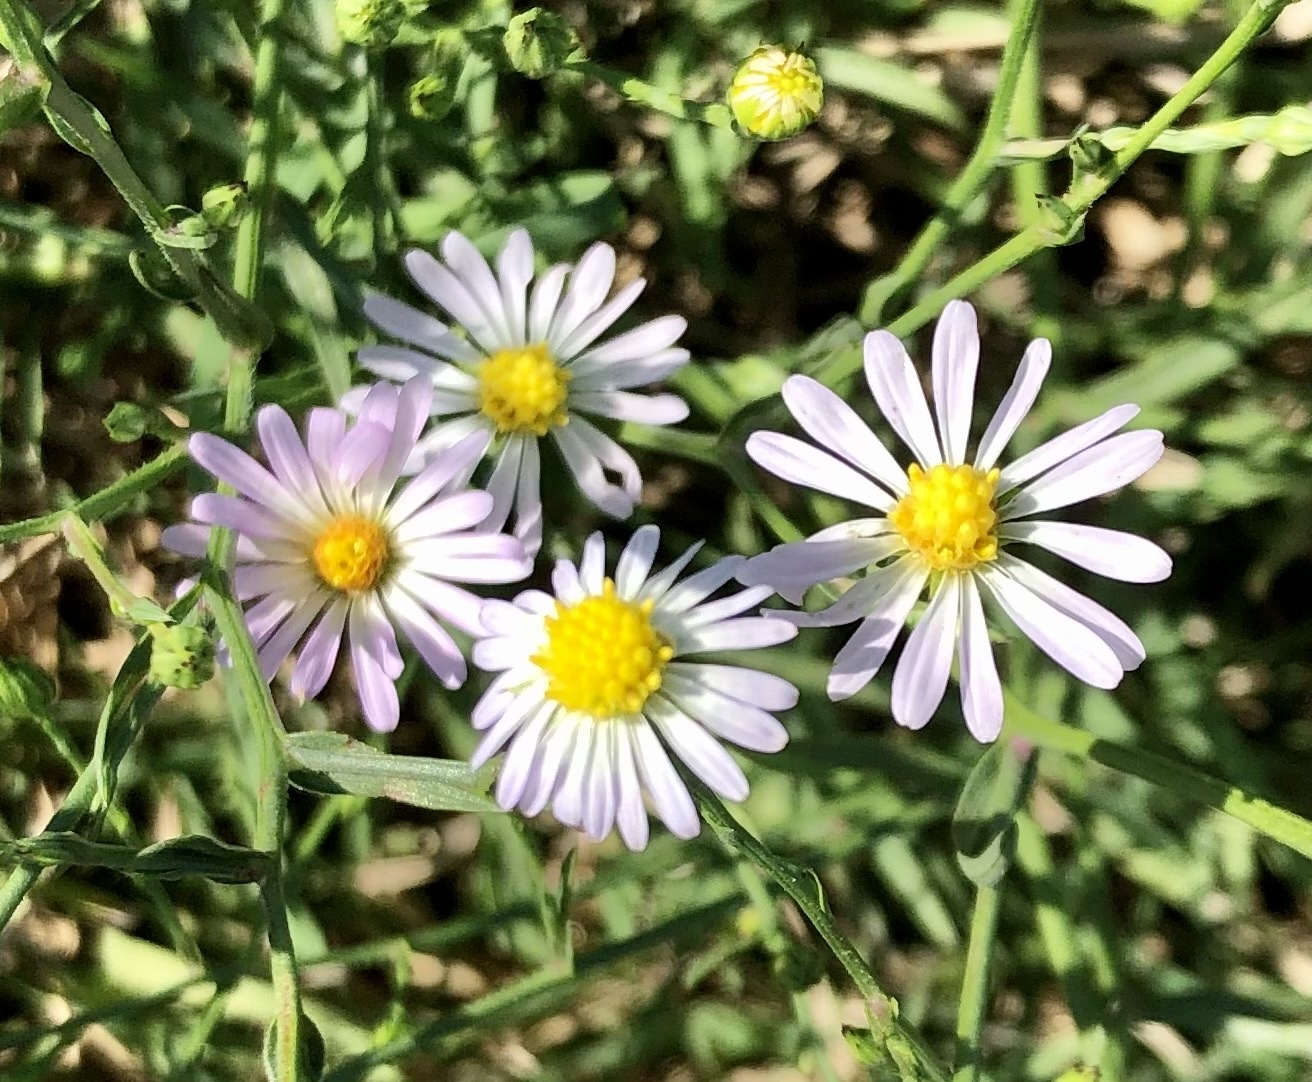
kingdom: Plantae
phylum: Tracheophyta
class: Magnoliopsida
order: Asterales
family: Asteraceae
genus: Symphyotrichum
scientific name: Symphyotrichum divaricatum
